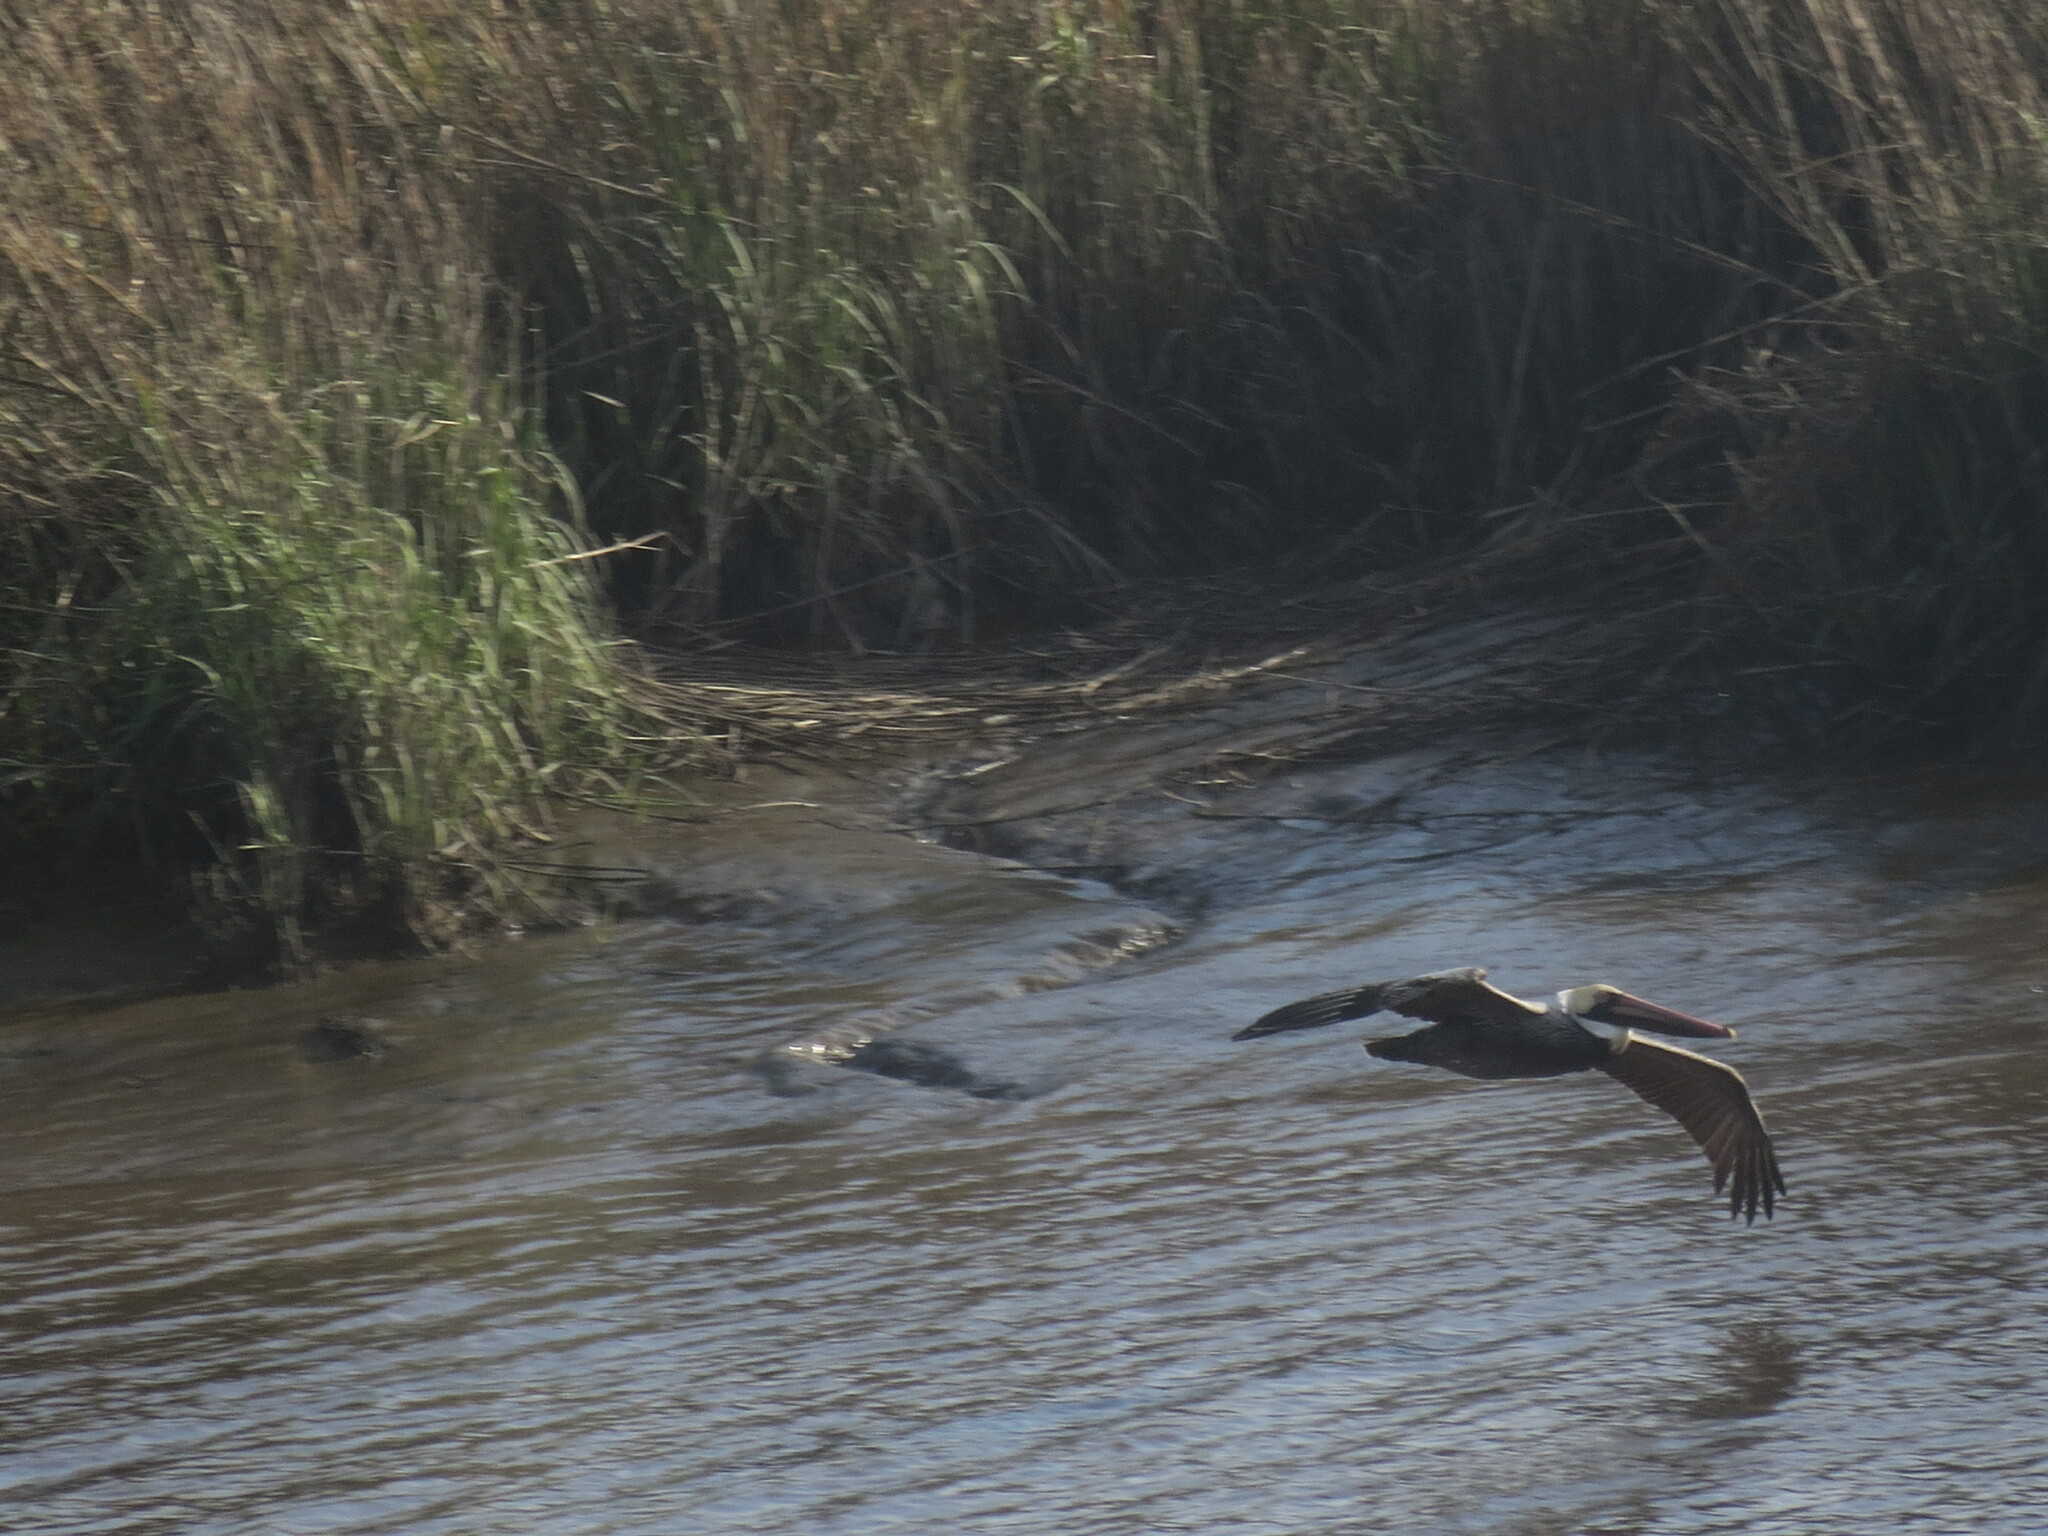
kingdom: Animalia
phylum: Chordata
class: Aves
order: Pelecaniformes
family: Pelecanidae
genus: Pelecanus
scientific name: Pelecanus occidentalis
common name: Brown pelican
